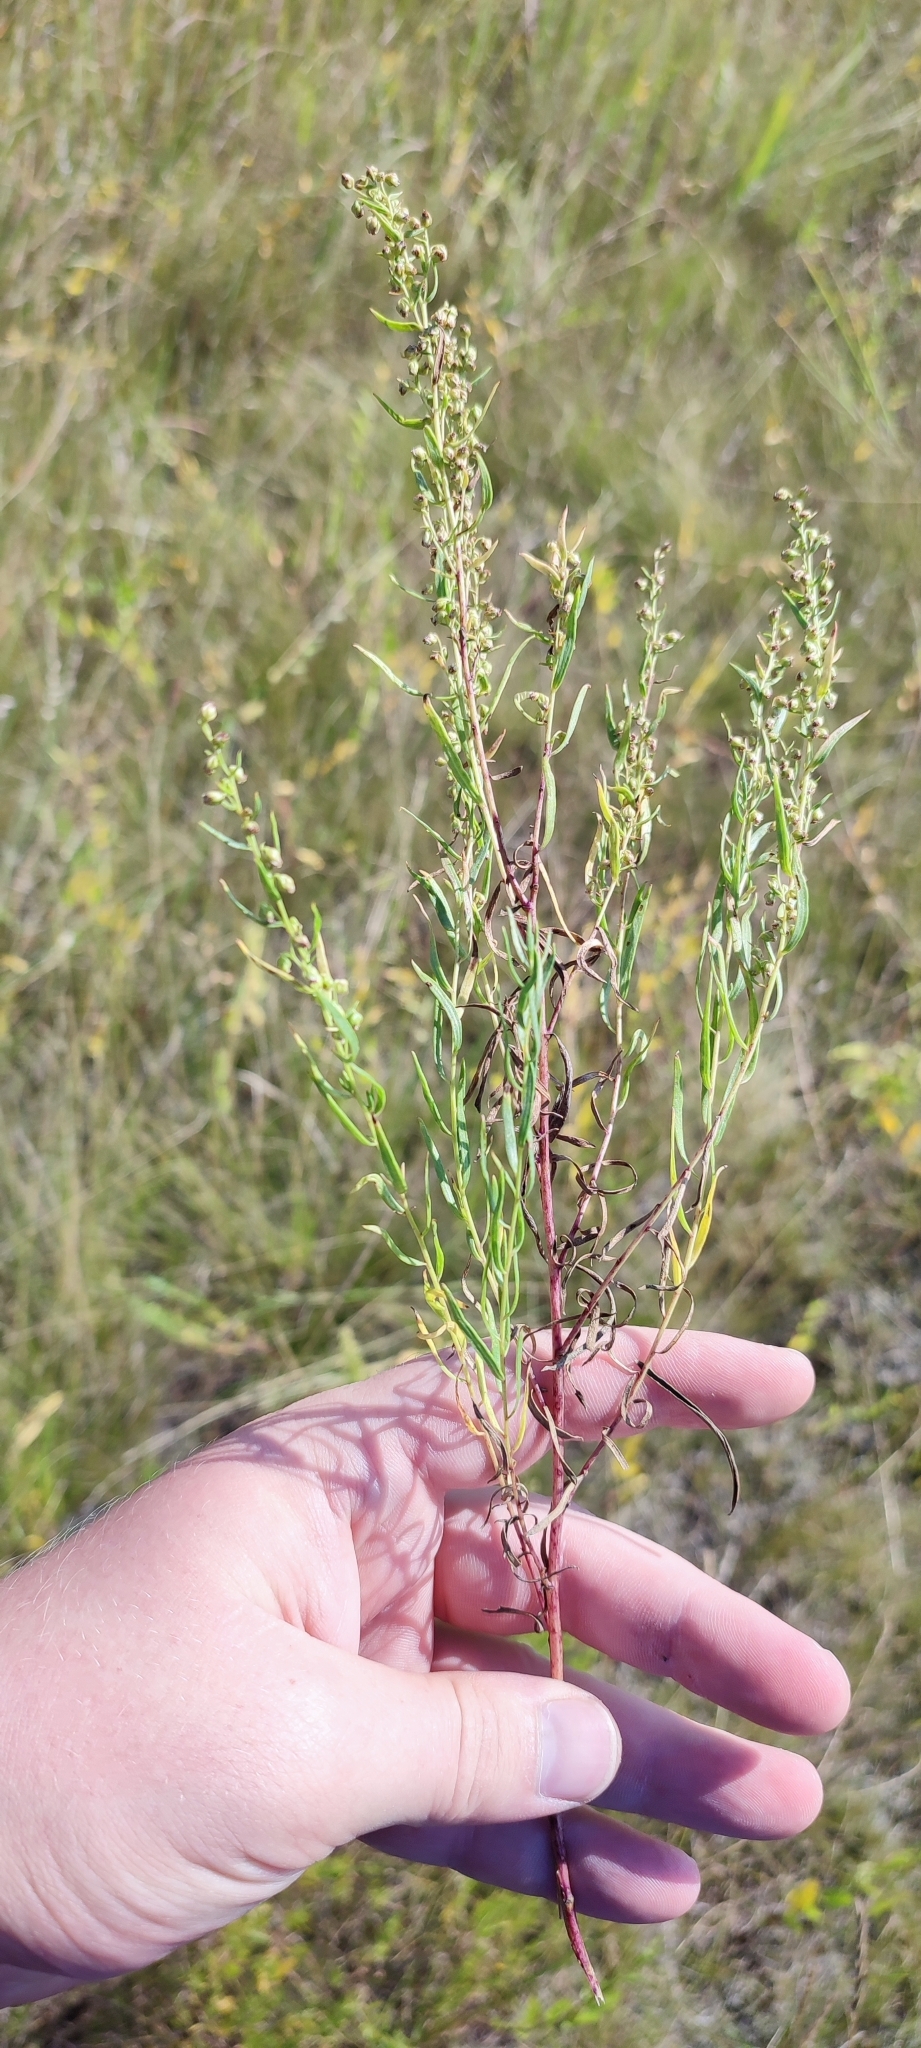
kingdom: Plantae
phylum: Tracheophyta
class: Magnoliopsida
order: Asterales
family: Asteraceae
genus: Artemisia
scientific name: Artemisia dracunculus
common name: Tarragon
